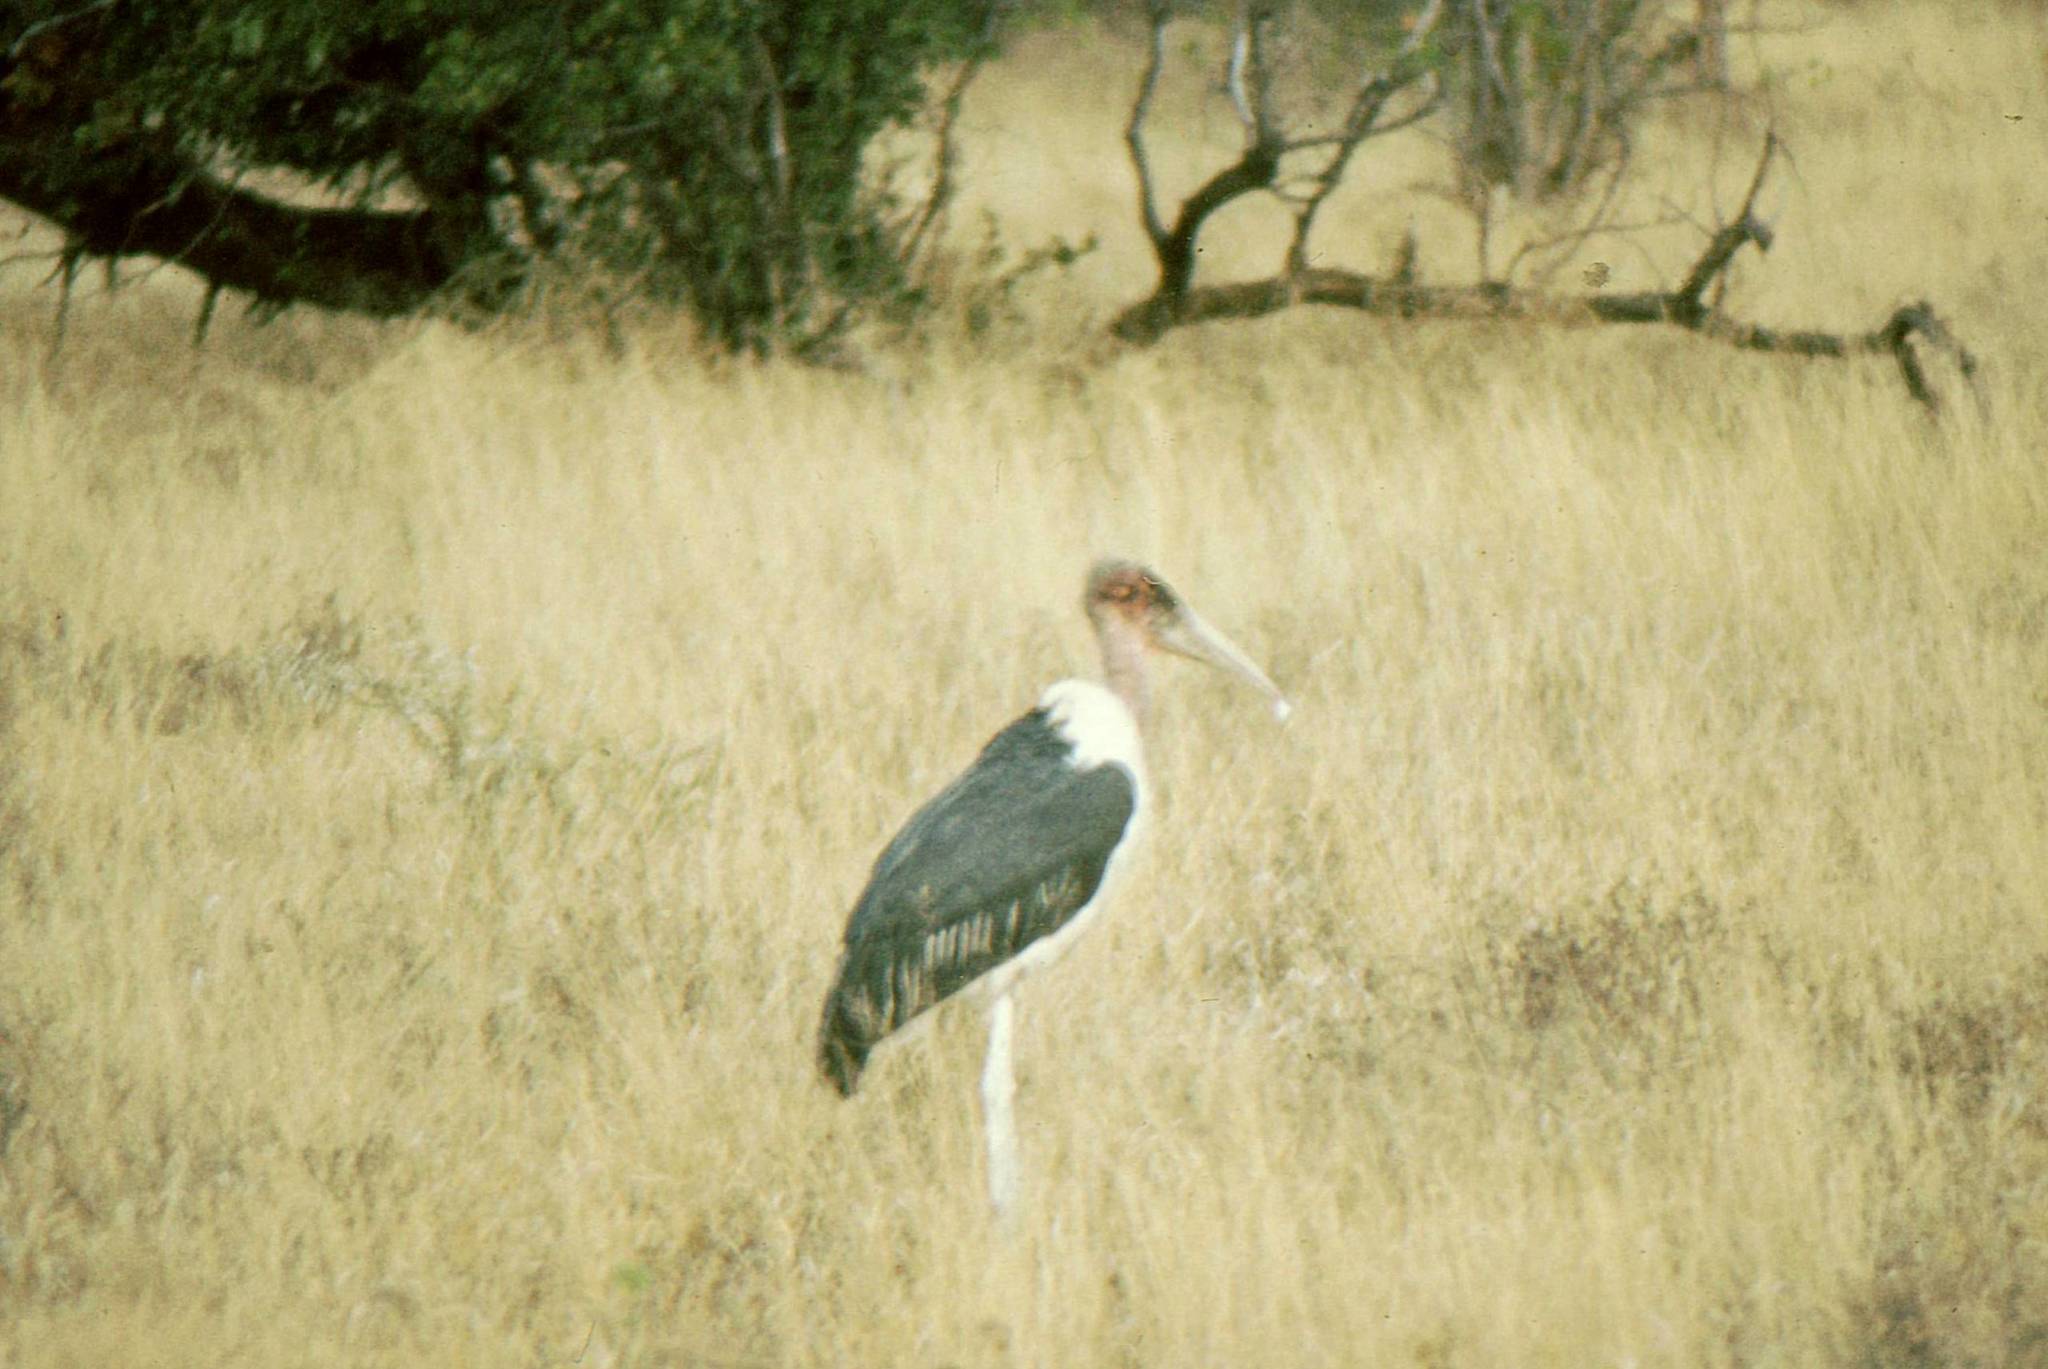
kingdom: Animalia
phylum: Chordata
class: Aves
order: Ciconiiformes
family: Ciconiidae
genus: Leptoptilos
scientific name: Leptoptilos crumenifer
